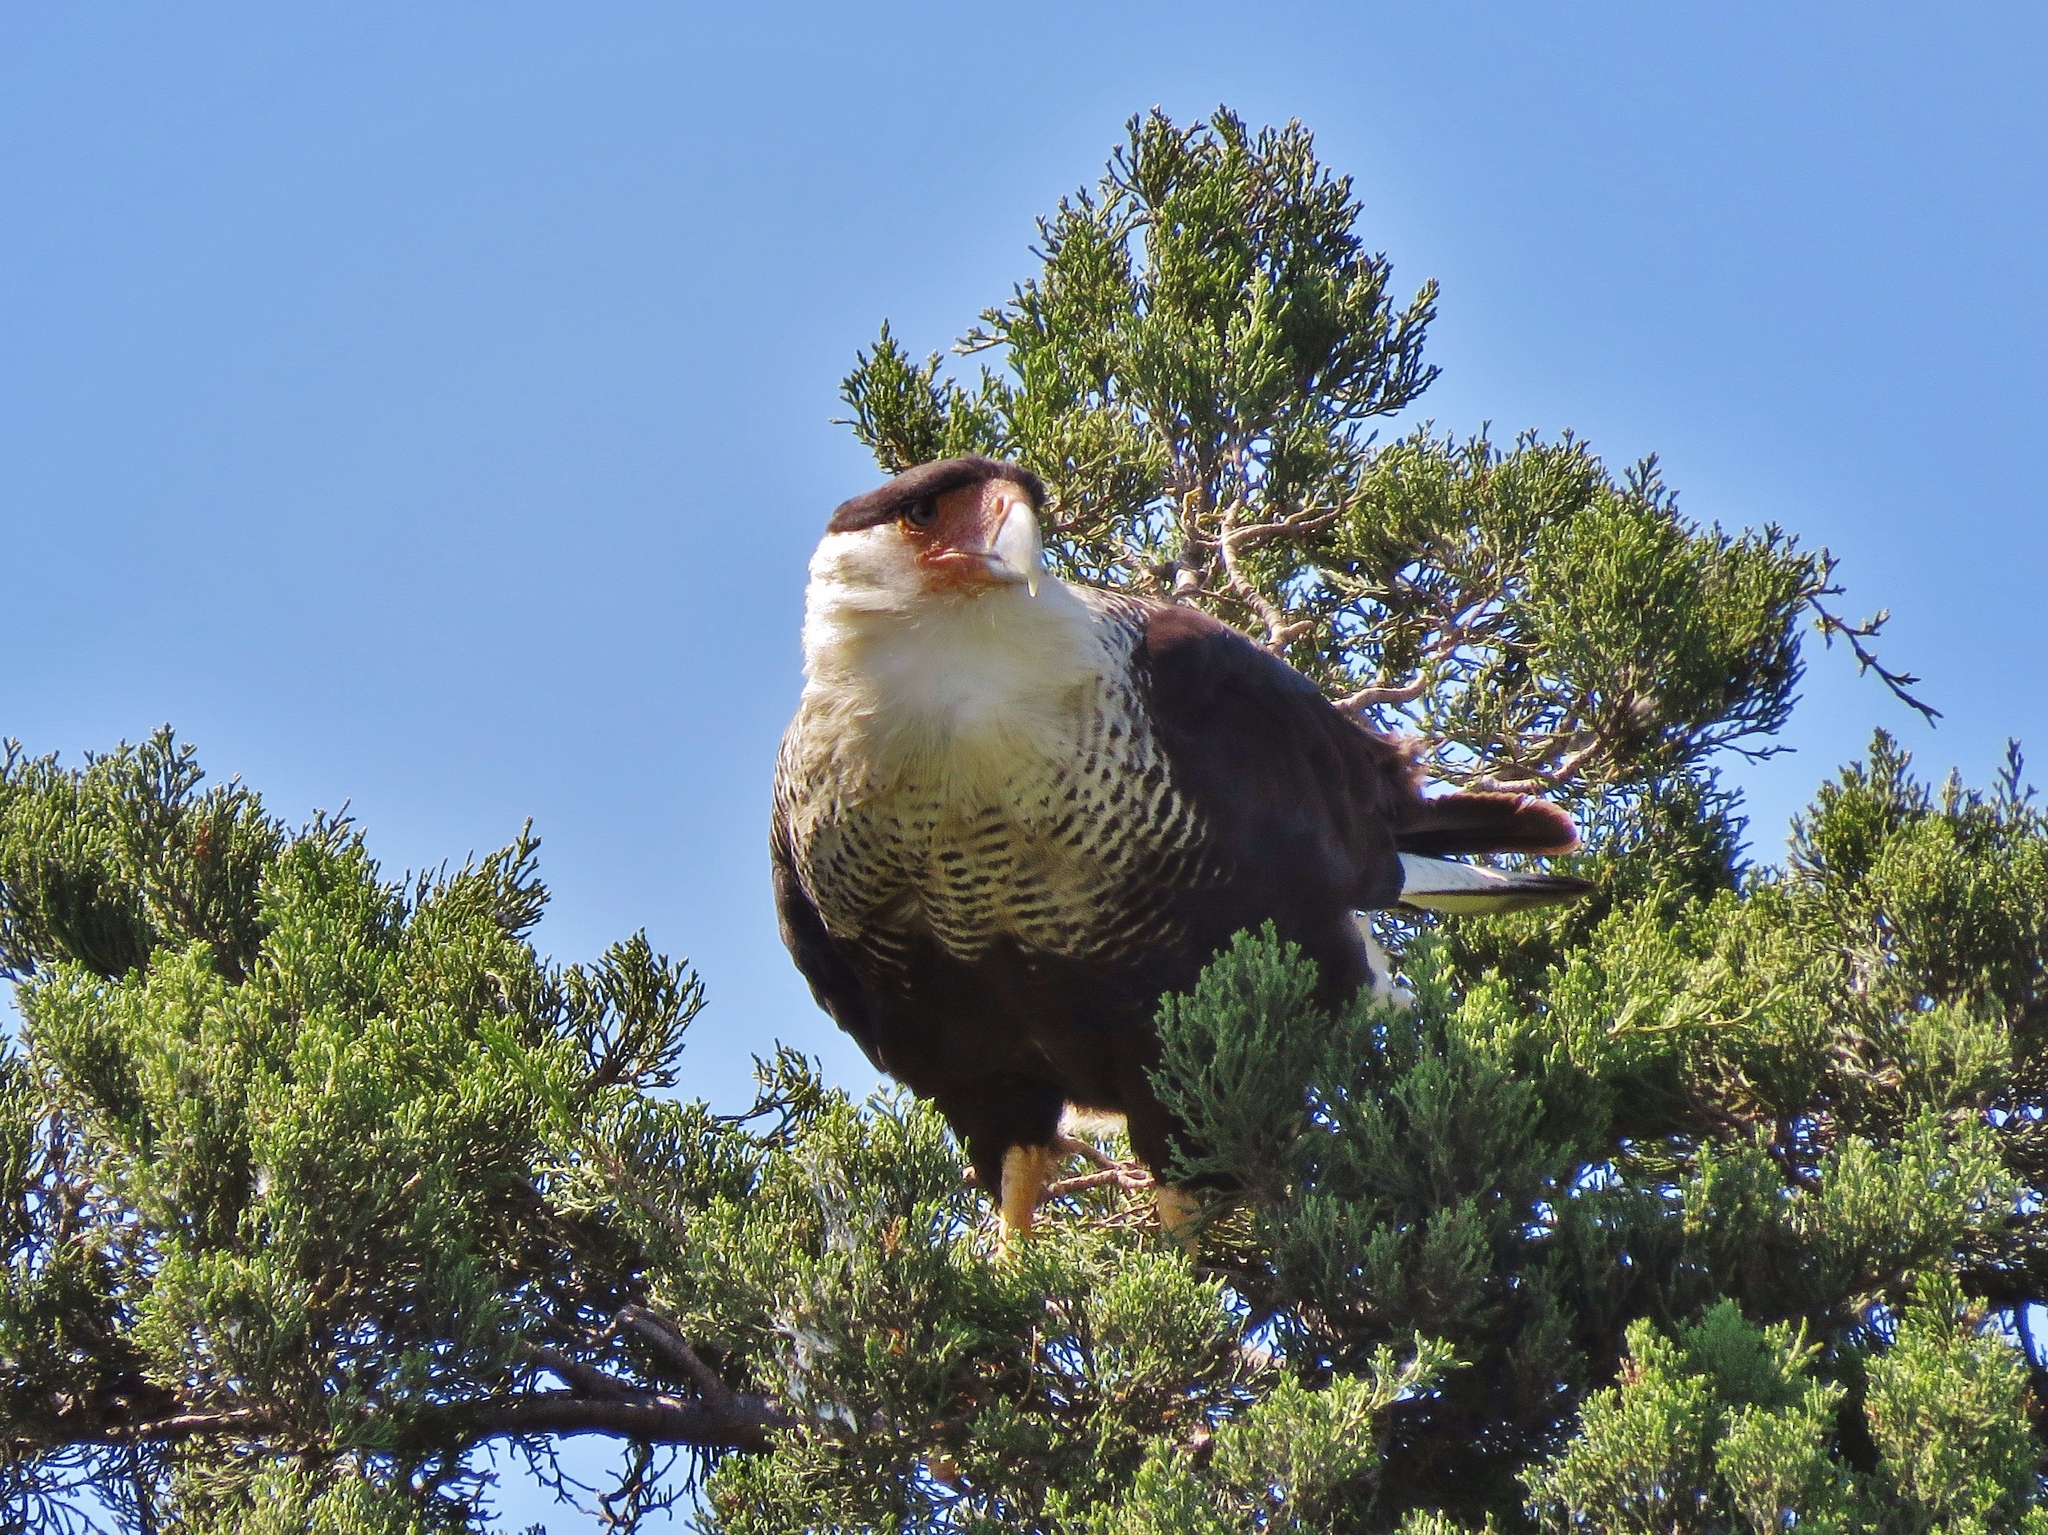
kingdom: Animalia
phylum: Chordata
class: Aves
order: Falconiformes
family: Falconidae
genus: Caracara
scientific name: Caracara plancus
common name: Southern caracara
